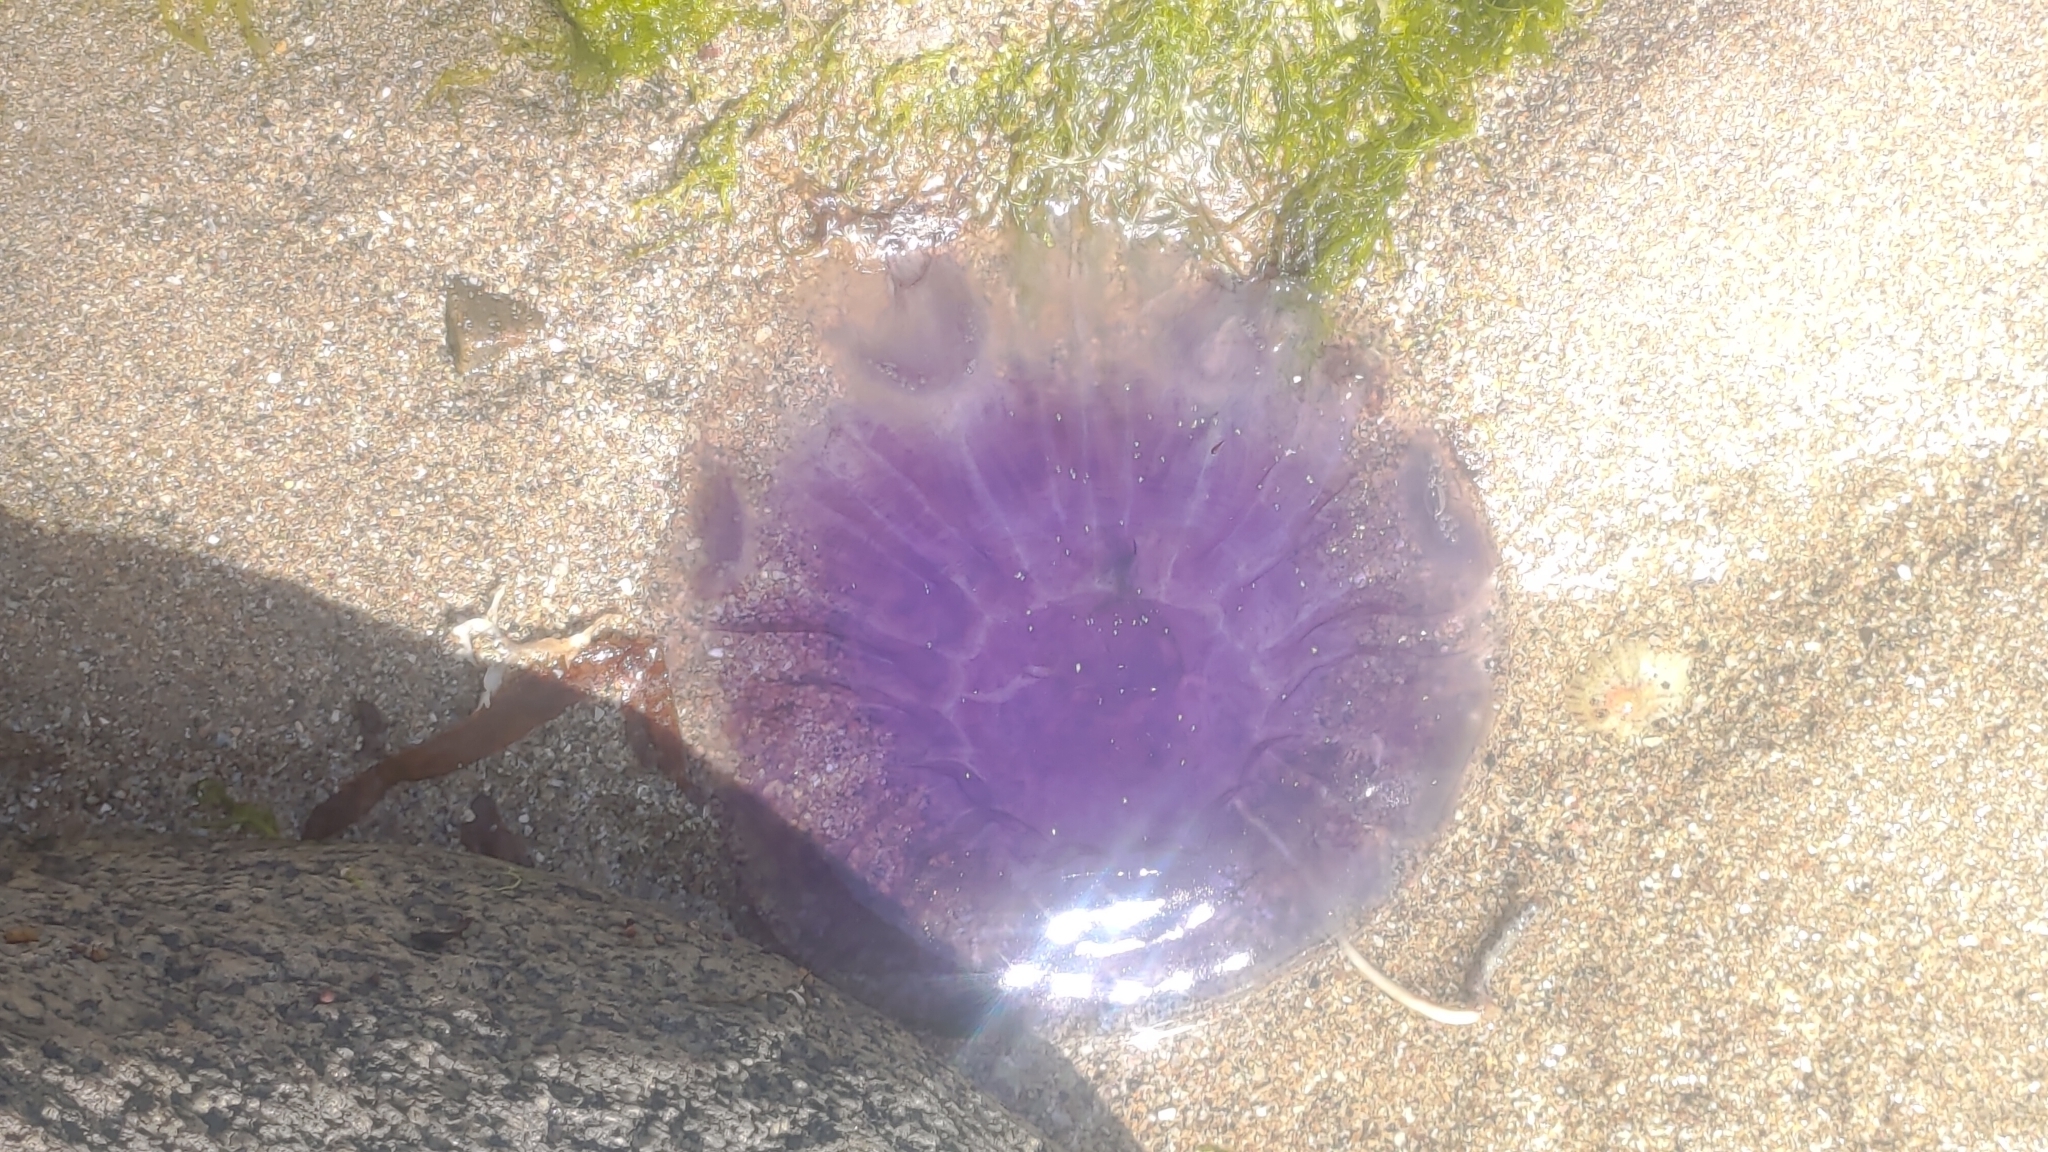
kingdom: Animalia
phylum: Cnidaria
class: Scyphozoa
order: Semaeostomeae
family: Cyaneidae
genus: Cyanea
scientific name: Cyanea lamarckii
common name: Blue jellyfish
